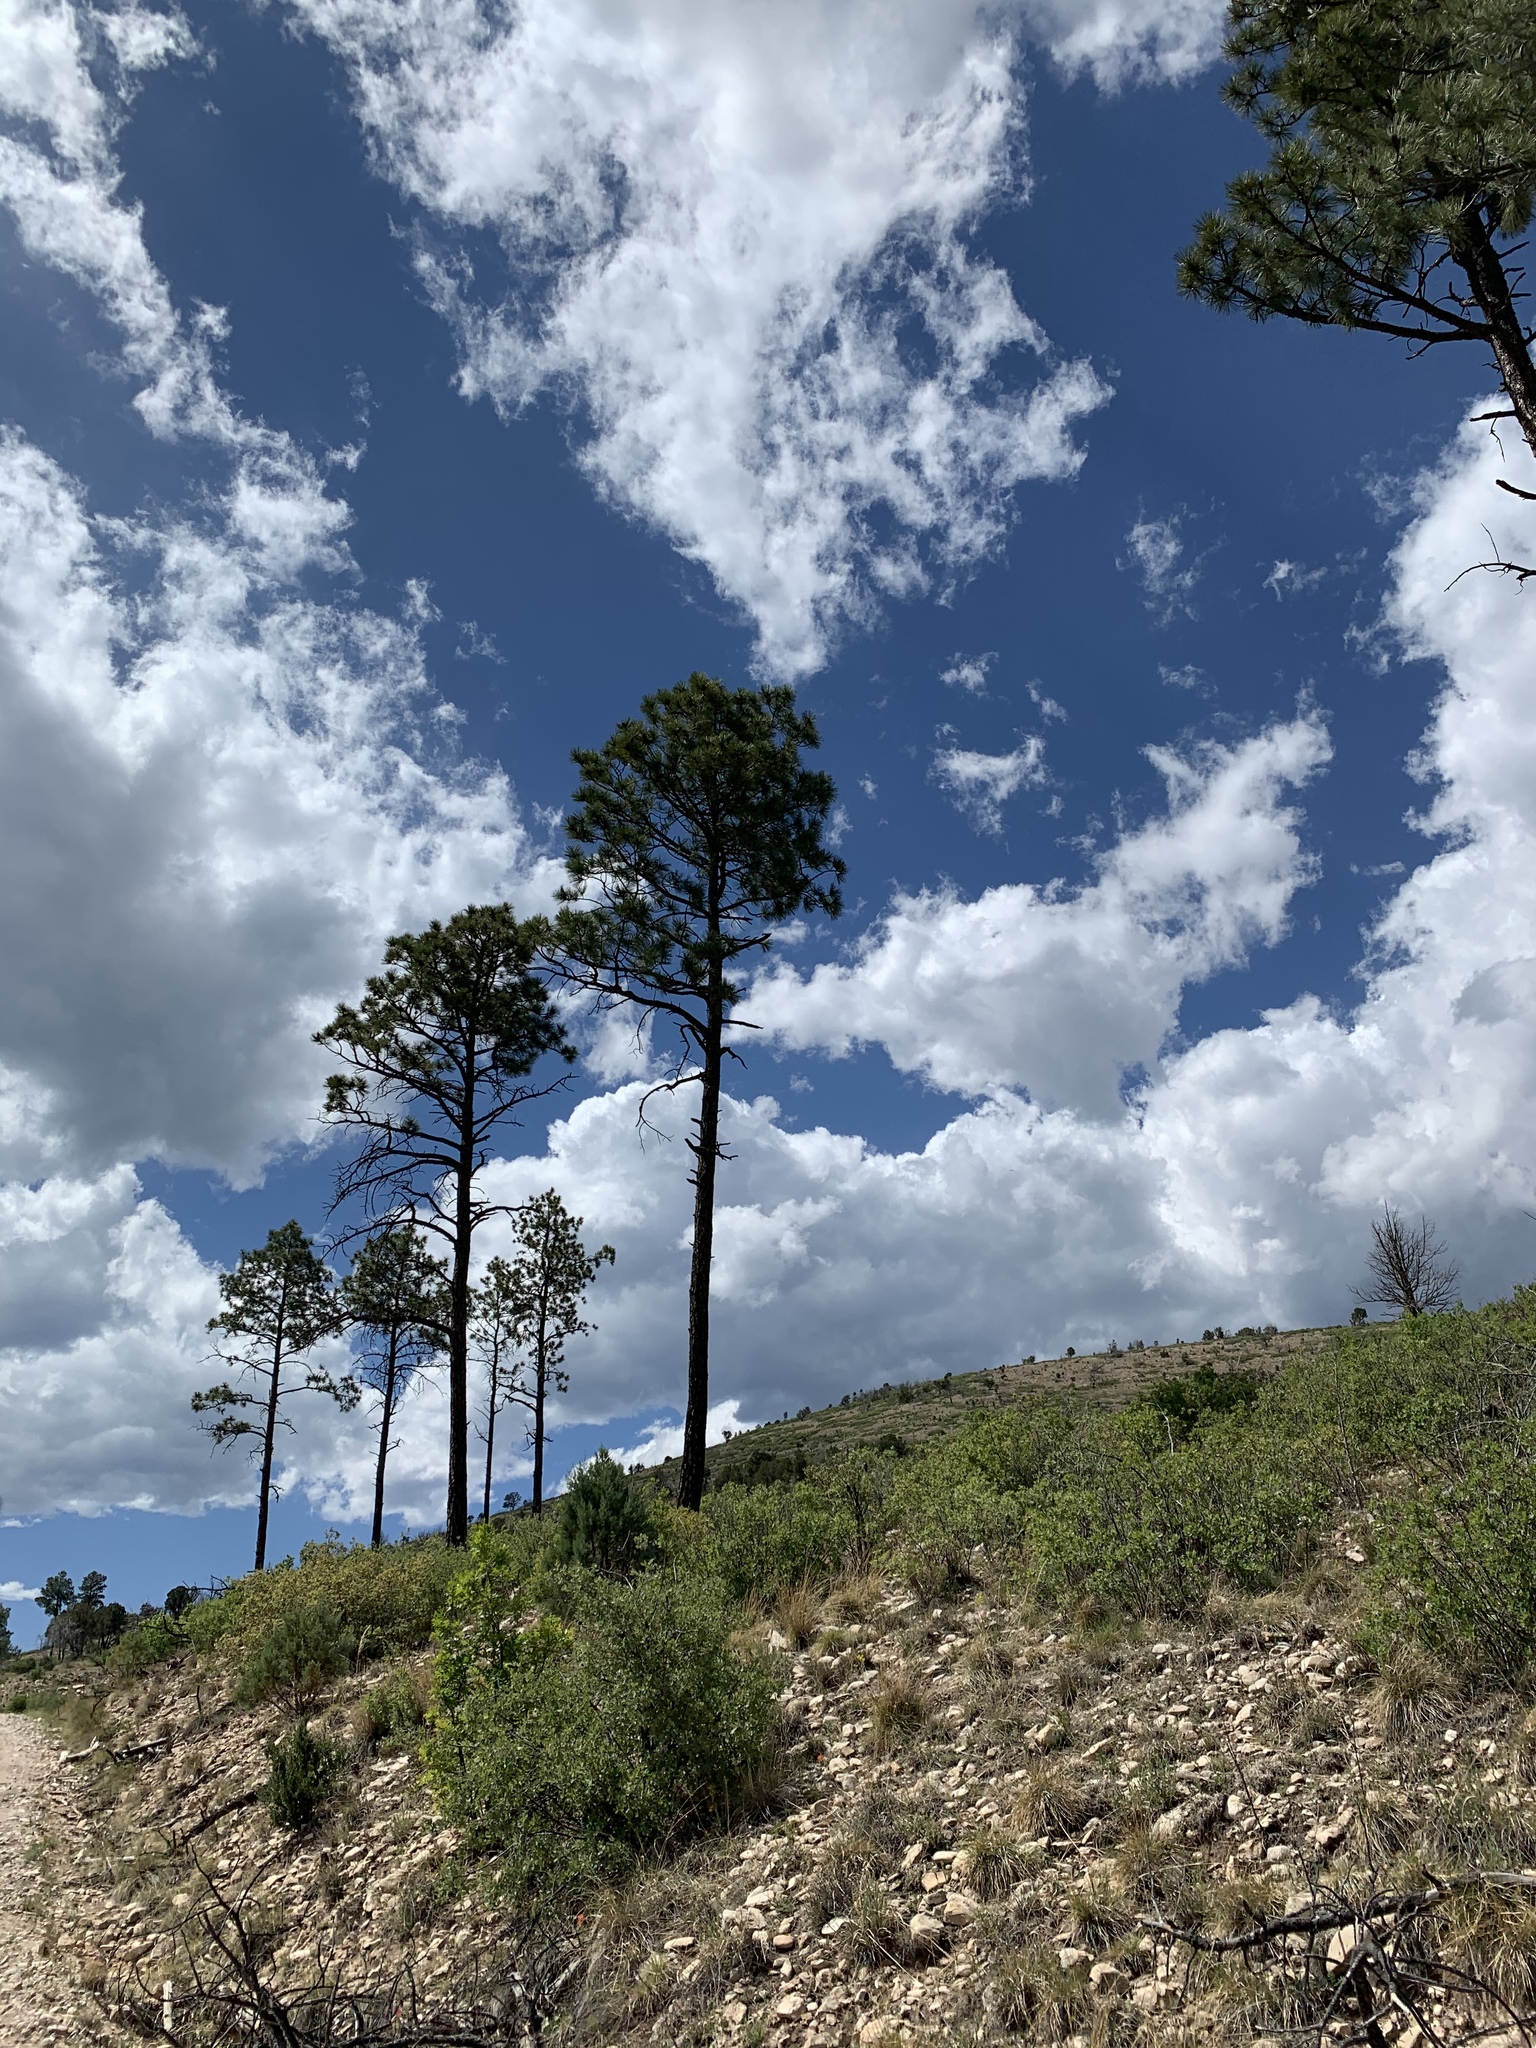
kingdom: Plantae
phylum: Tracheophyta
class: Pinopsida
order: Pinales
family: Pinaceae
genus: Pinus
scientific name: Pinus ponderosa
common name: Western yellow-pine
